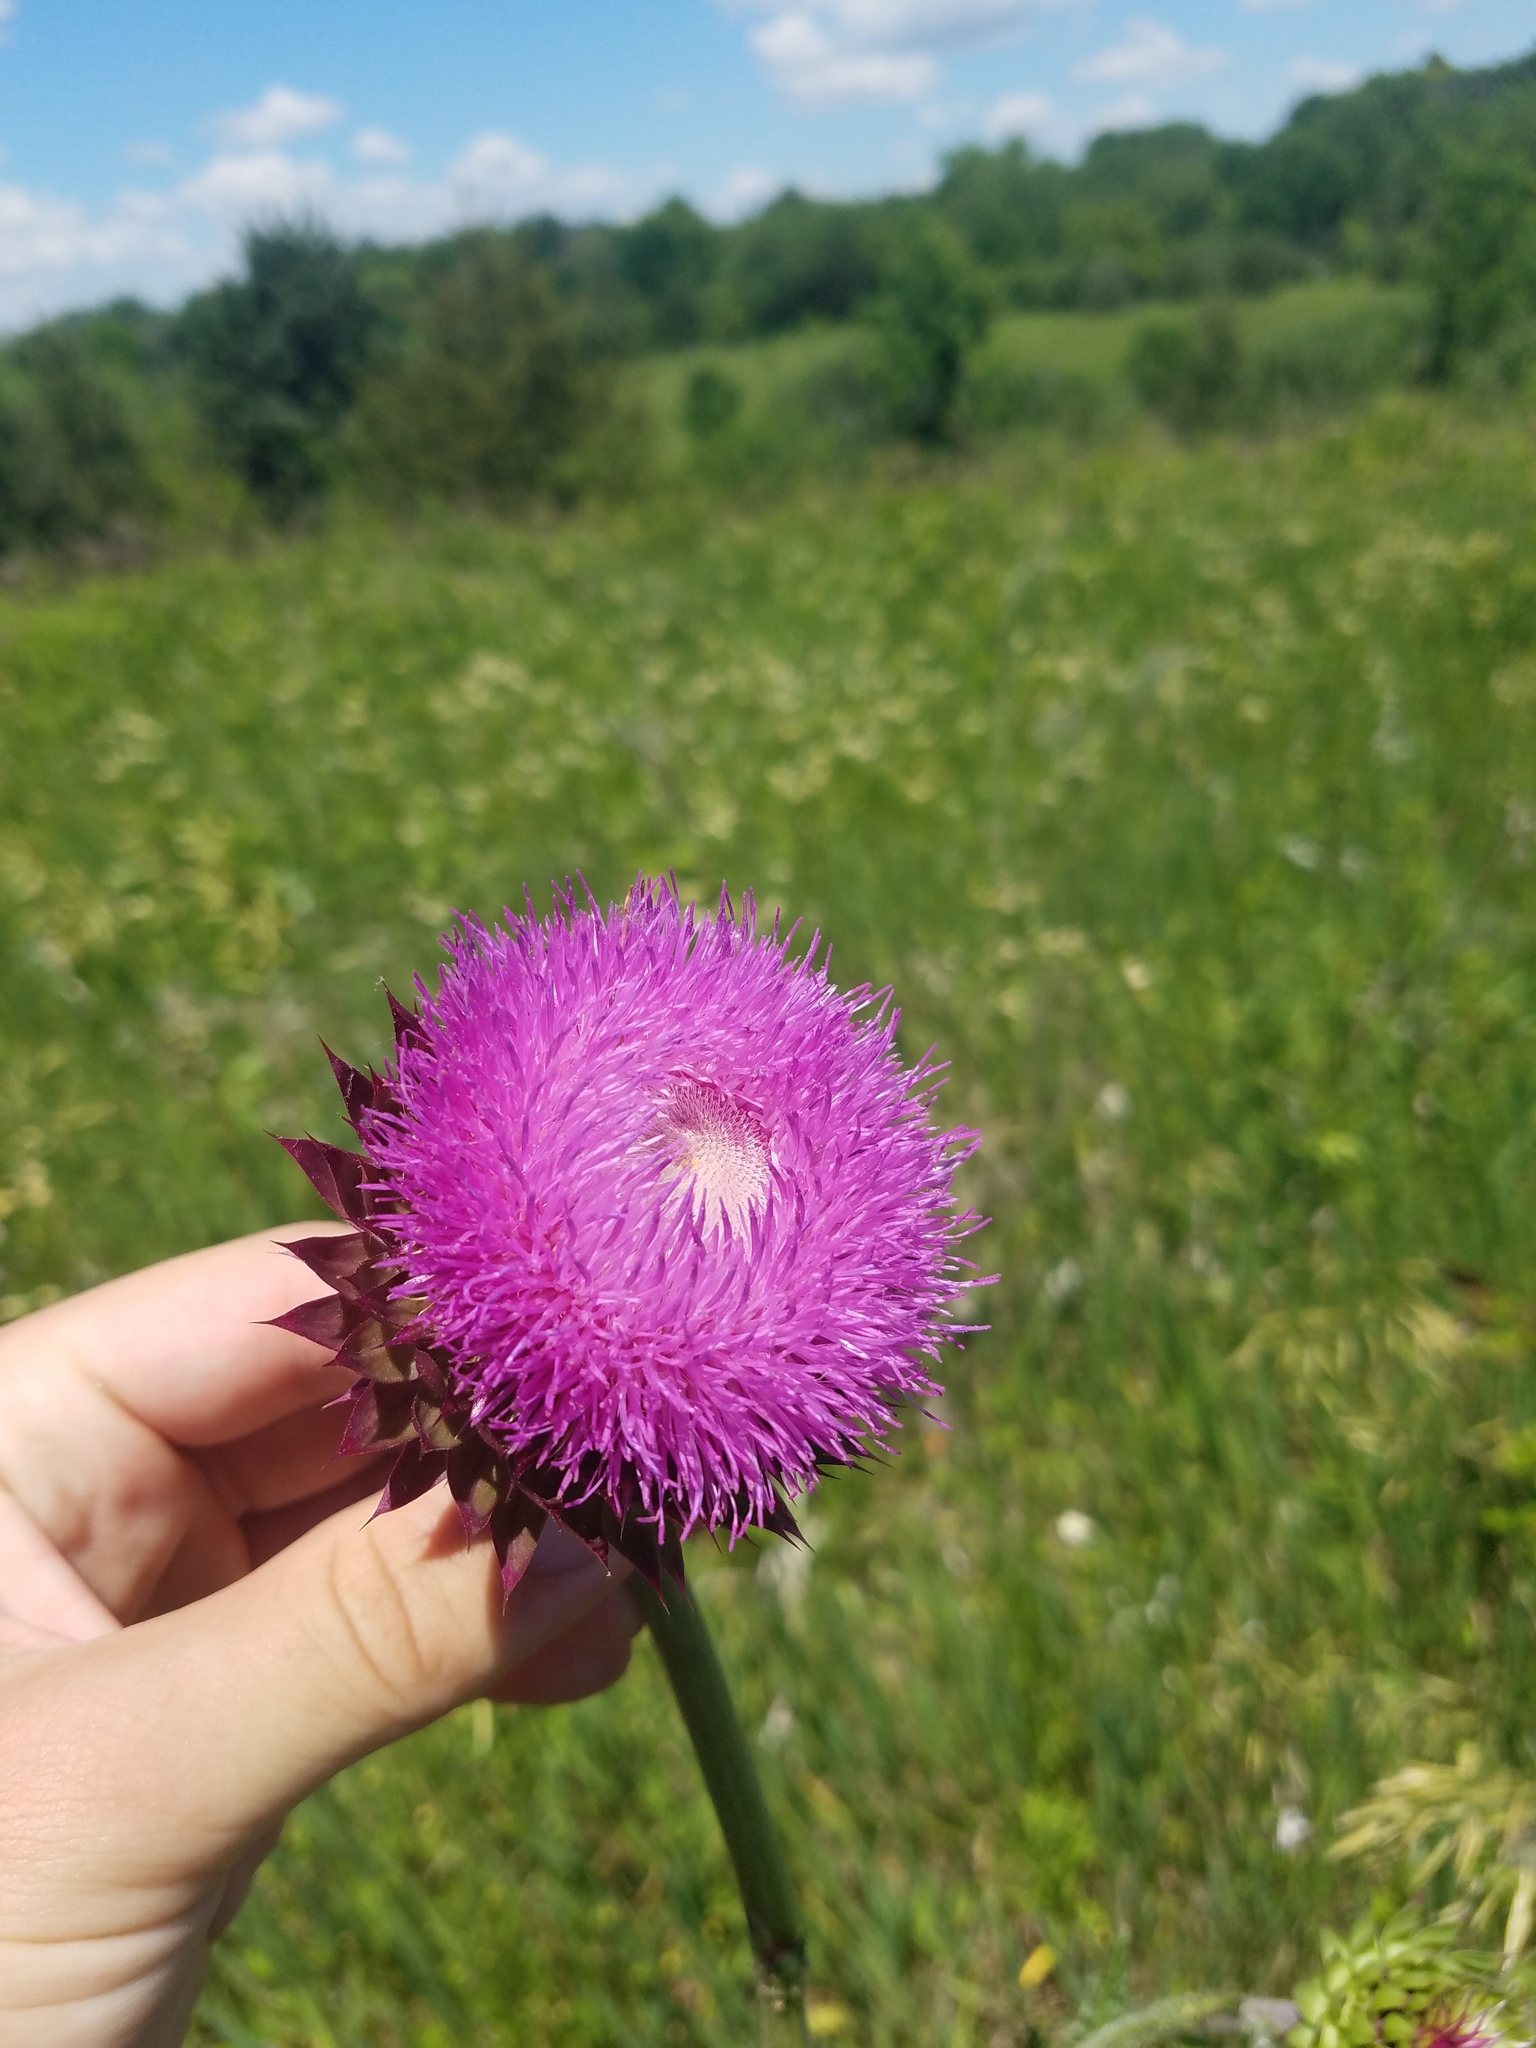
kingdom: Plantae
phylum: Tracheophyta
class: Magnoliopsida
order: Asterales
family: Asteraceae
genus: Carduus
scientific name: Carduus nutans
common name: Musk thistle
